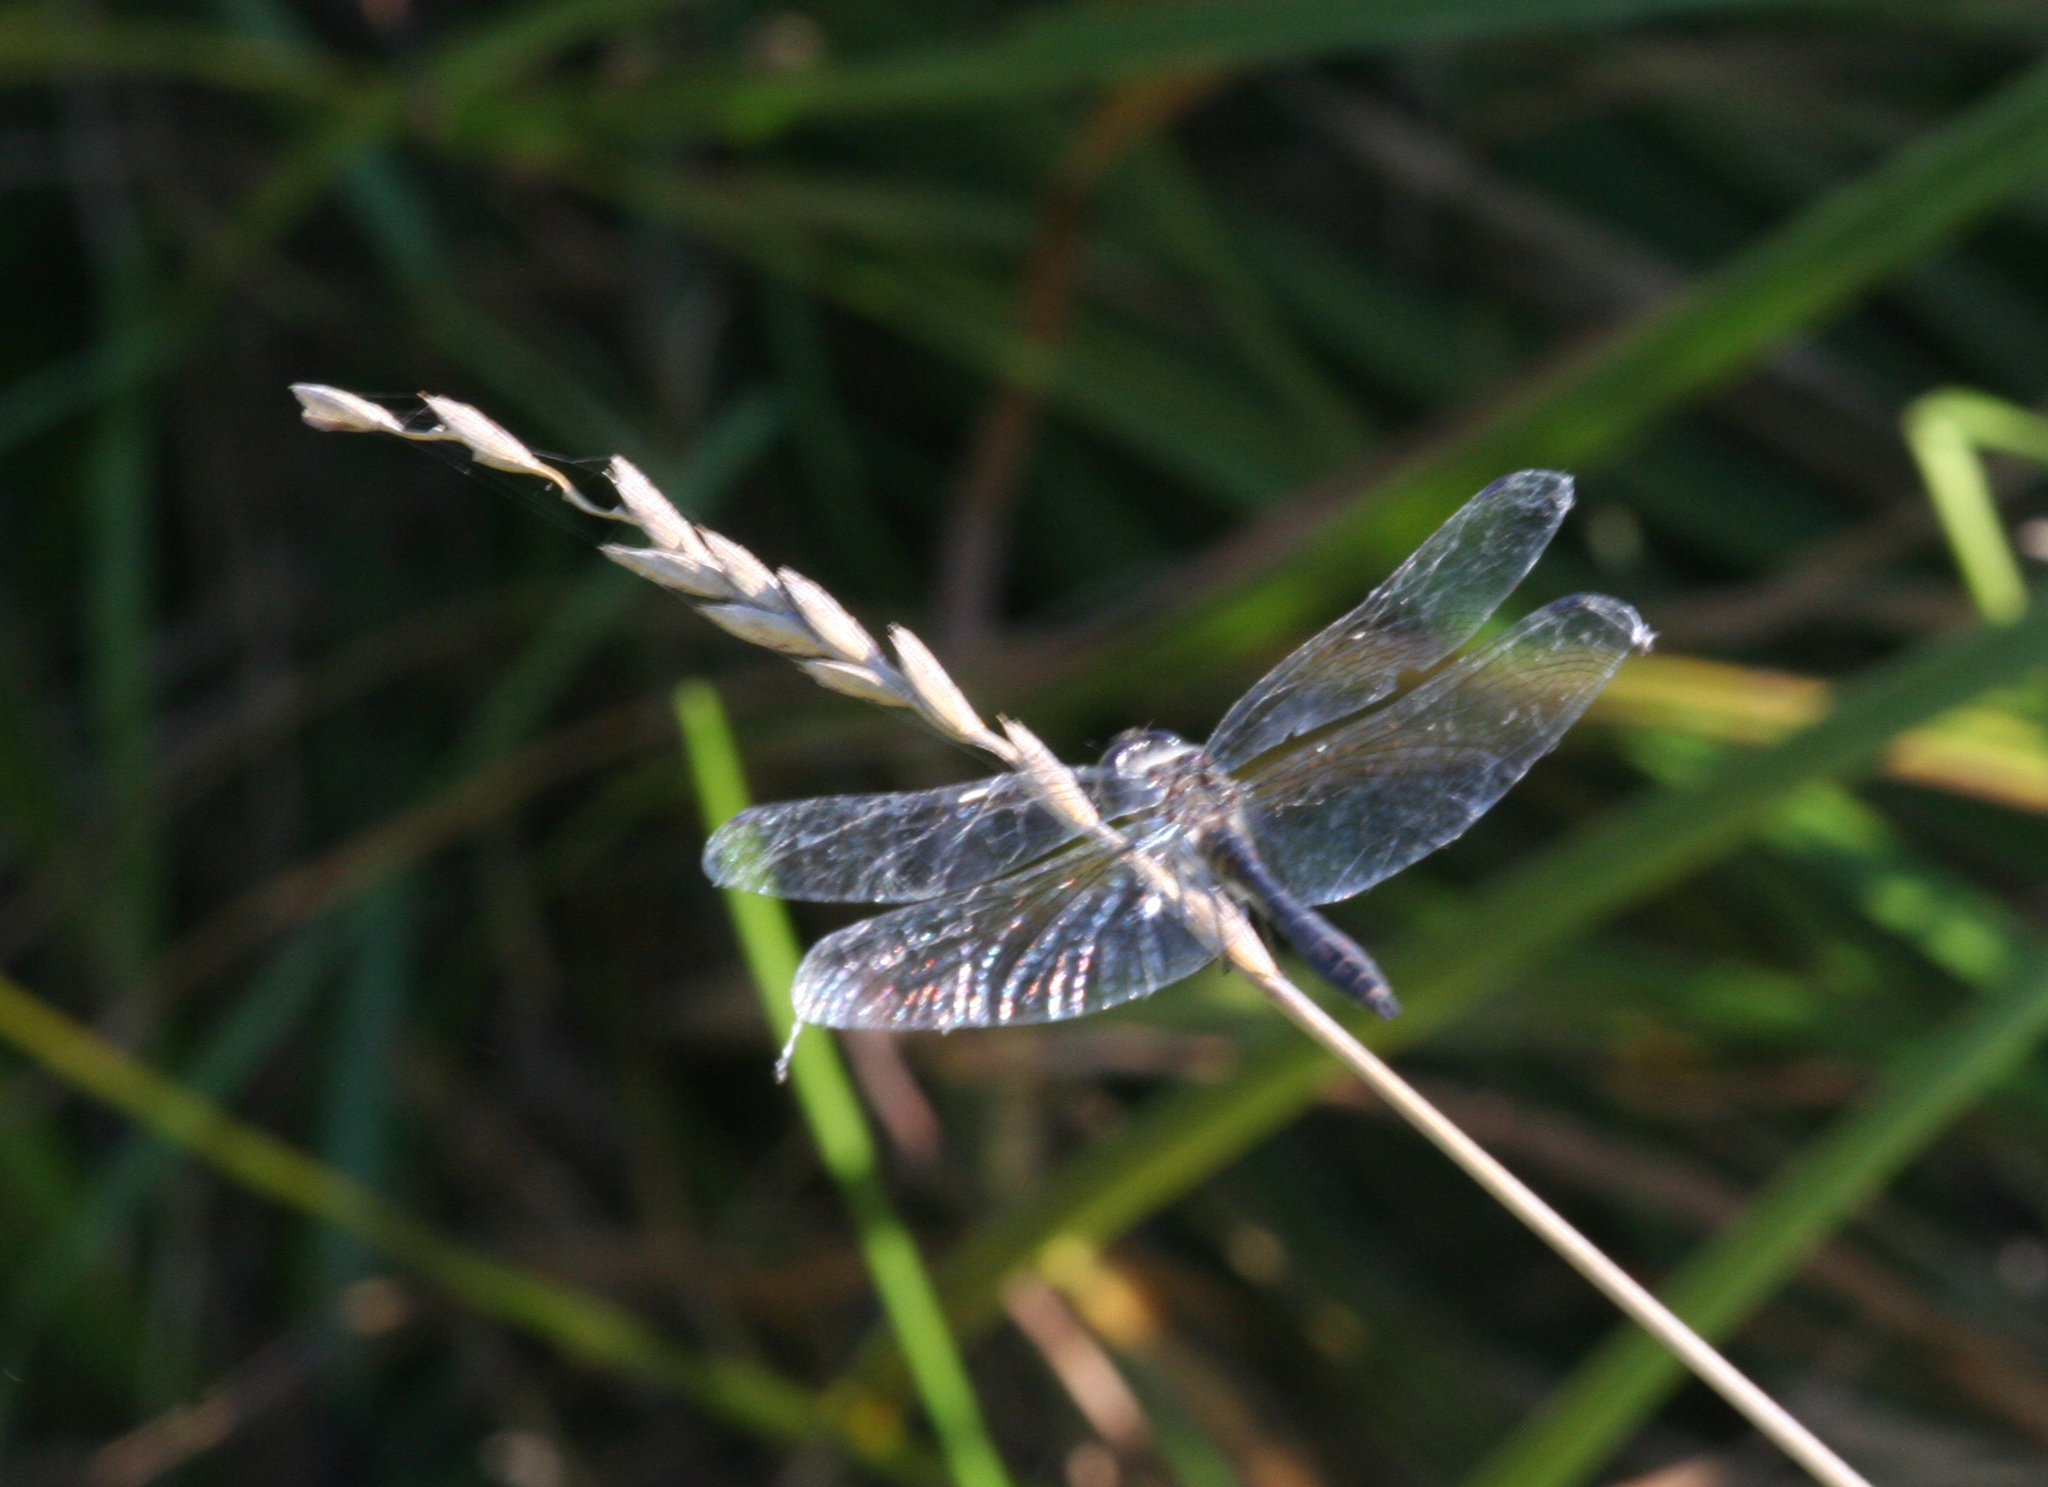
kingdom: Animalia
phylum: Arthropoda
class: Insecta
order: Odonata
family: Libellulidae
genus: Sympetrum
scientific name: Sympetrum danae
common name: Black darter
